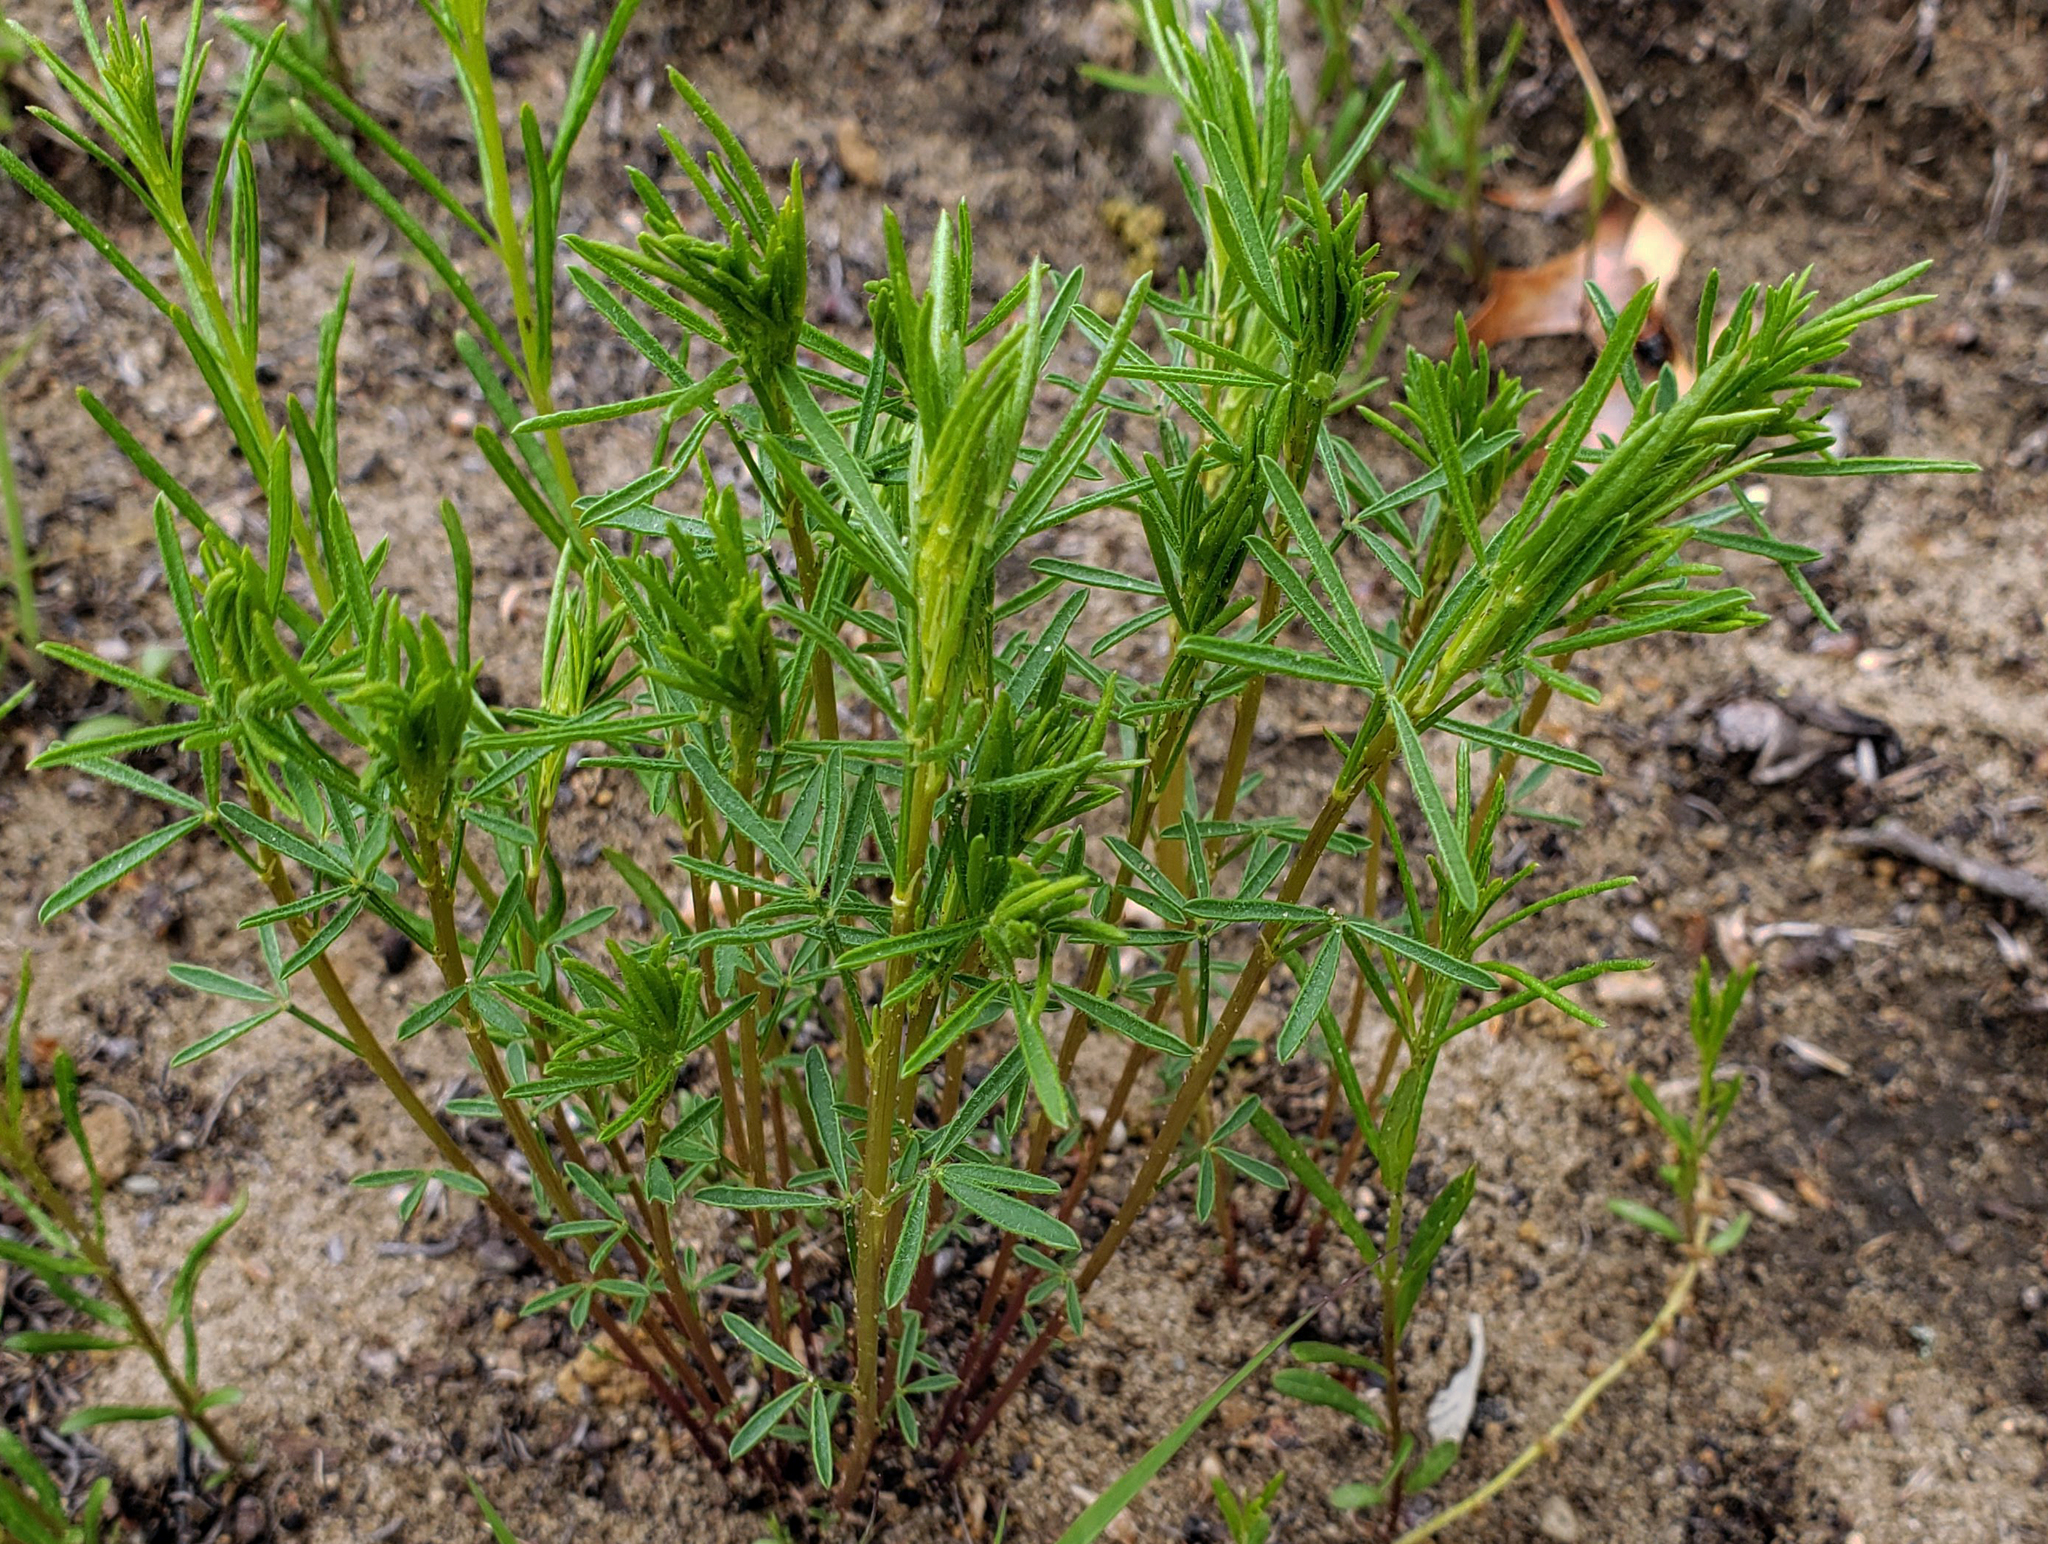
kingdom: Plantae
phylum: Tracheophyta
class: Magnoliopsida
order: Fabales
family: Fabaceae
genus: Dalea
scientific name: Dalea purpurea
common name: Purple prairie-clover
